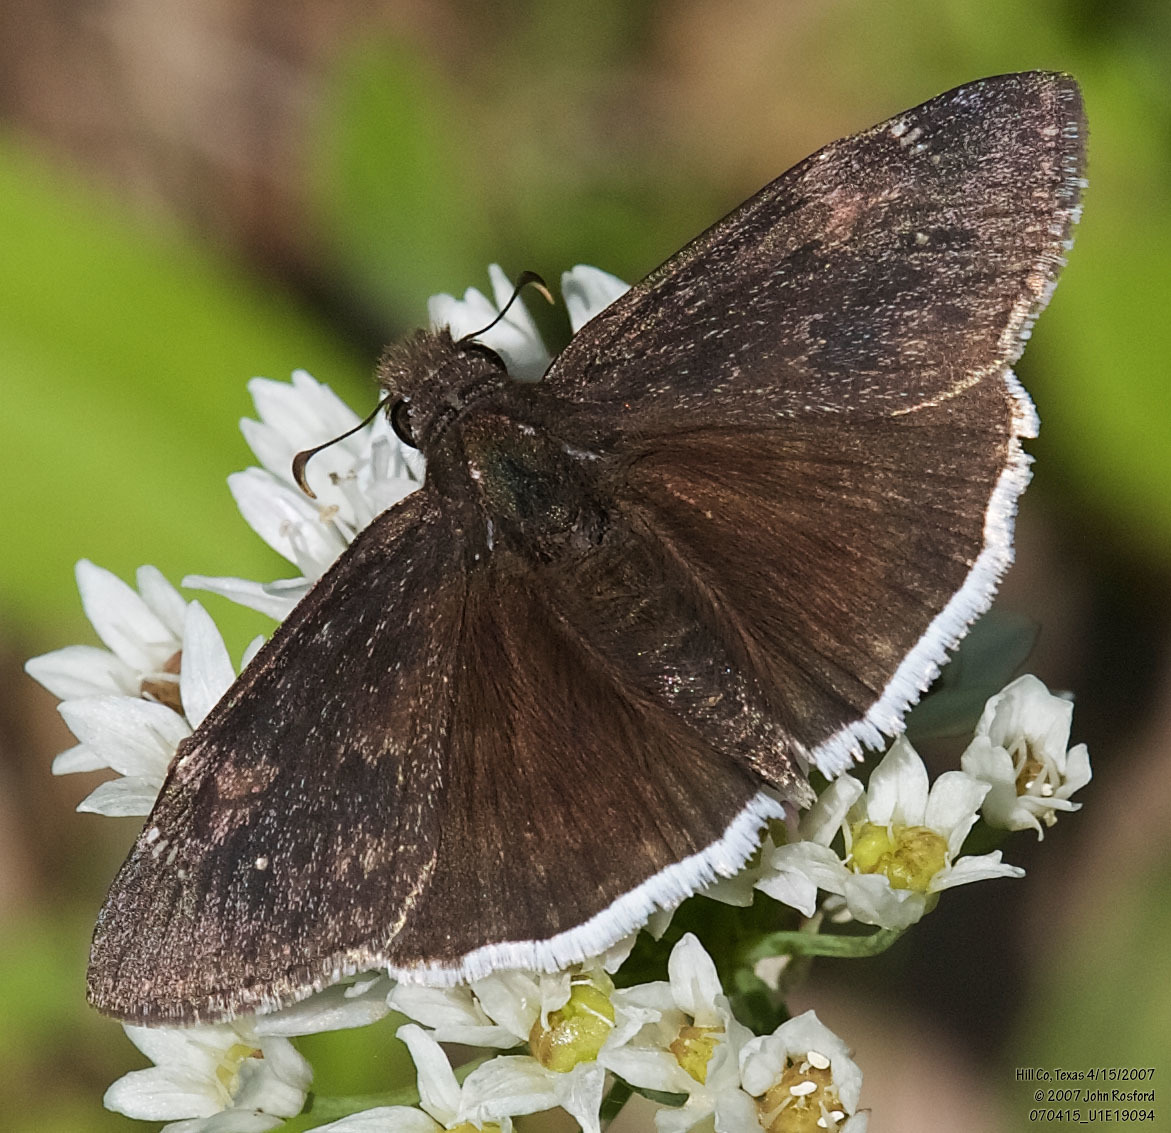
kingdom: Animalia
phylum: Arthropoda
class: Insecta
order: Lepidoptera
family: Hesperiidae
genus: Erynnis
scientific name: Erynnis funeralis
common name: Funereal duskywing
